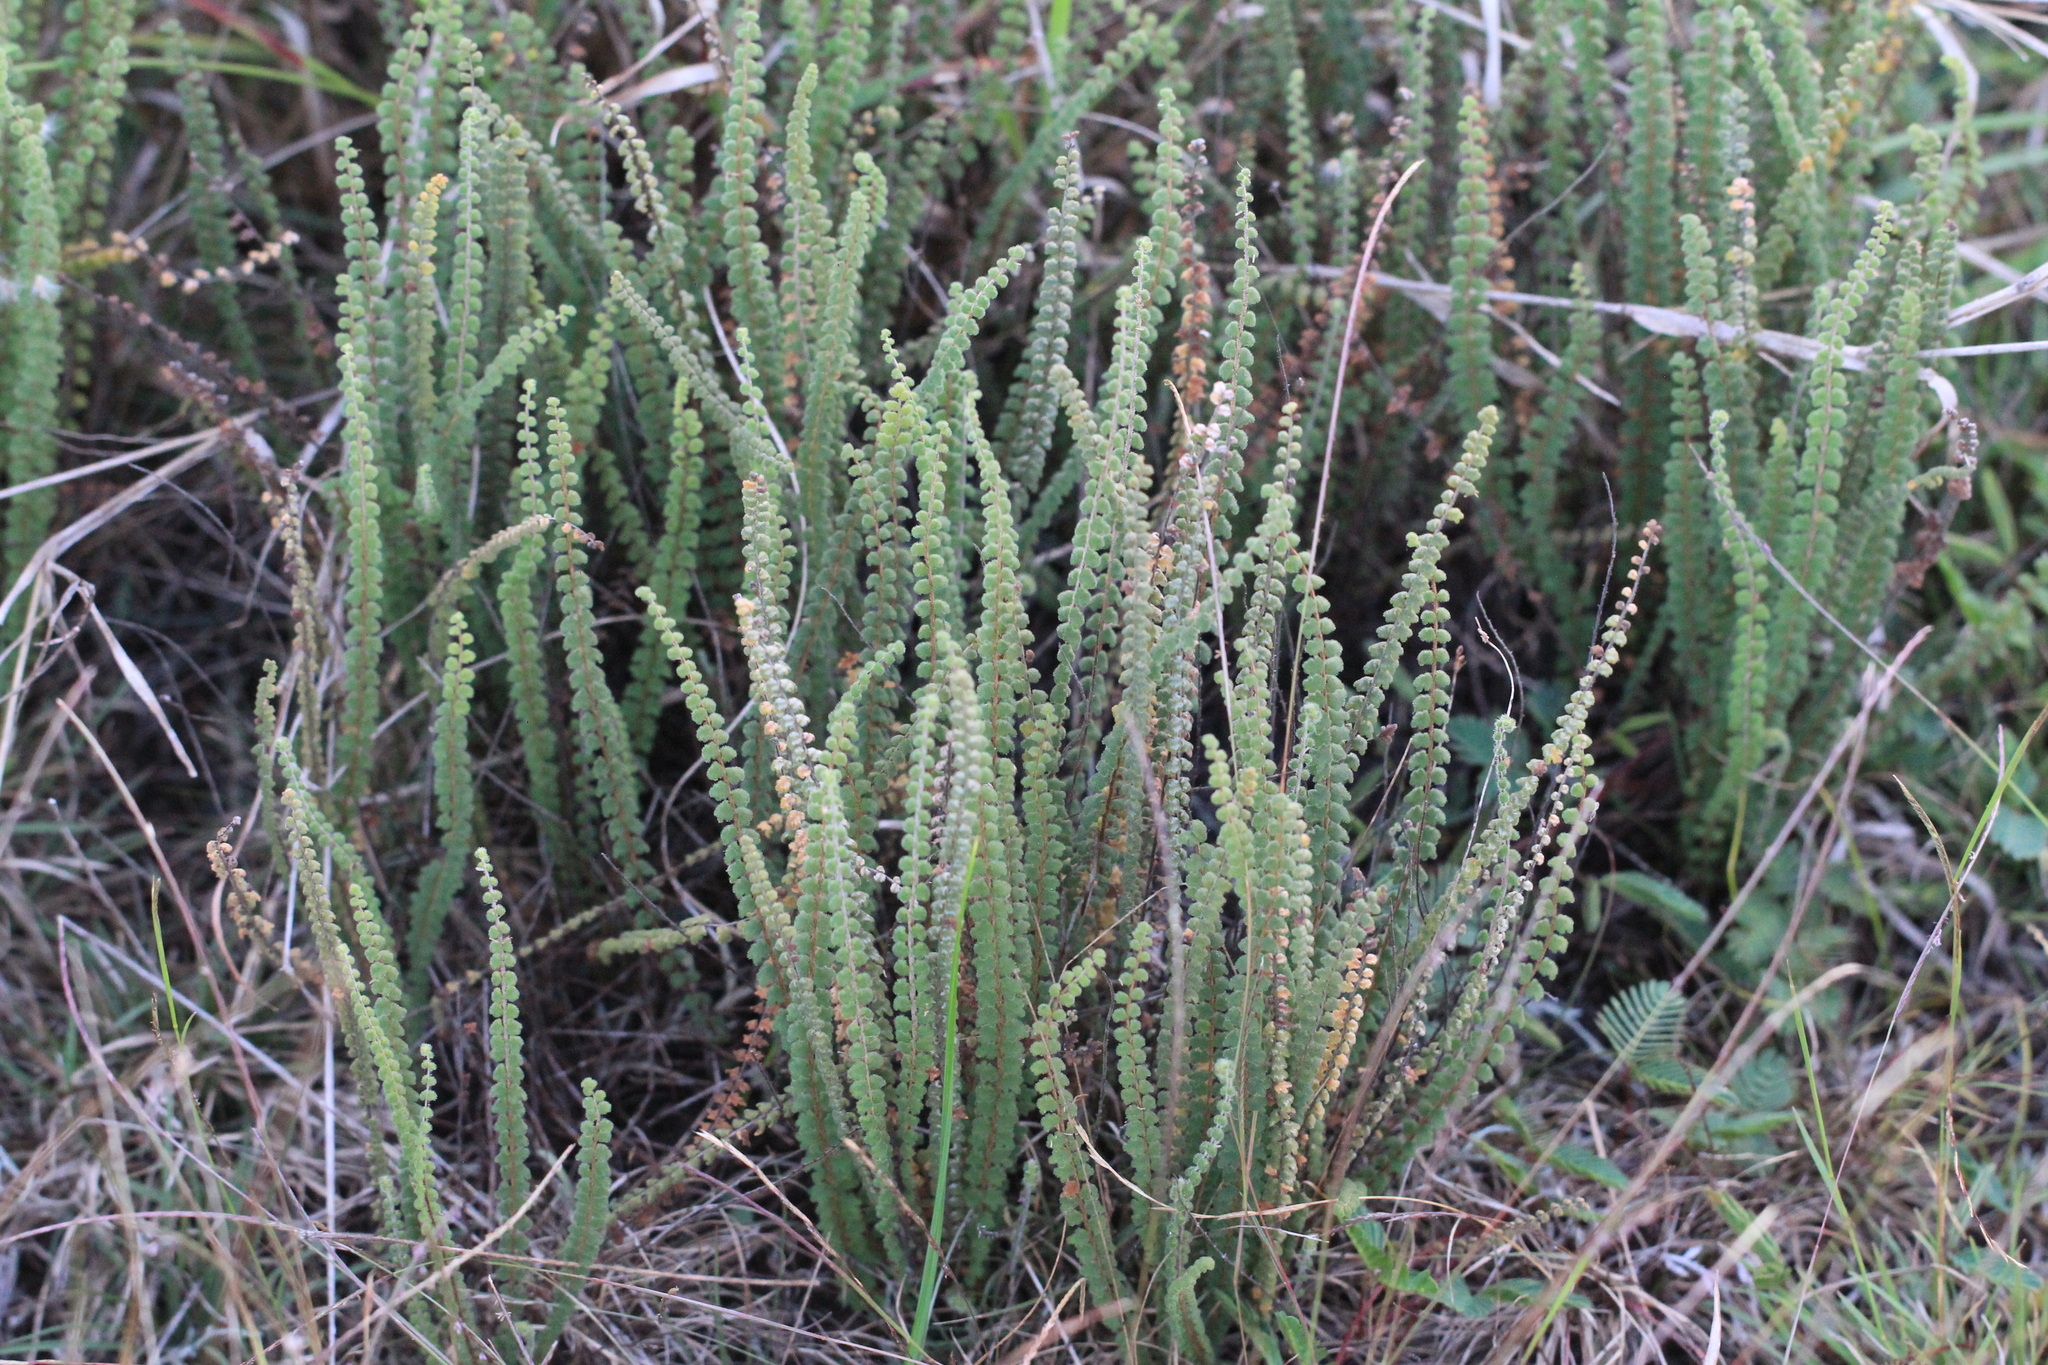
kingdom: Plantae
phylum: Tracheophyta
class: Polypodiopsida
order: Polypodiales
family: Pteridaceae
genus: Cheilanthes
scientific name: Cheilanthes micropteris
